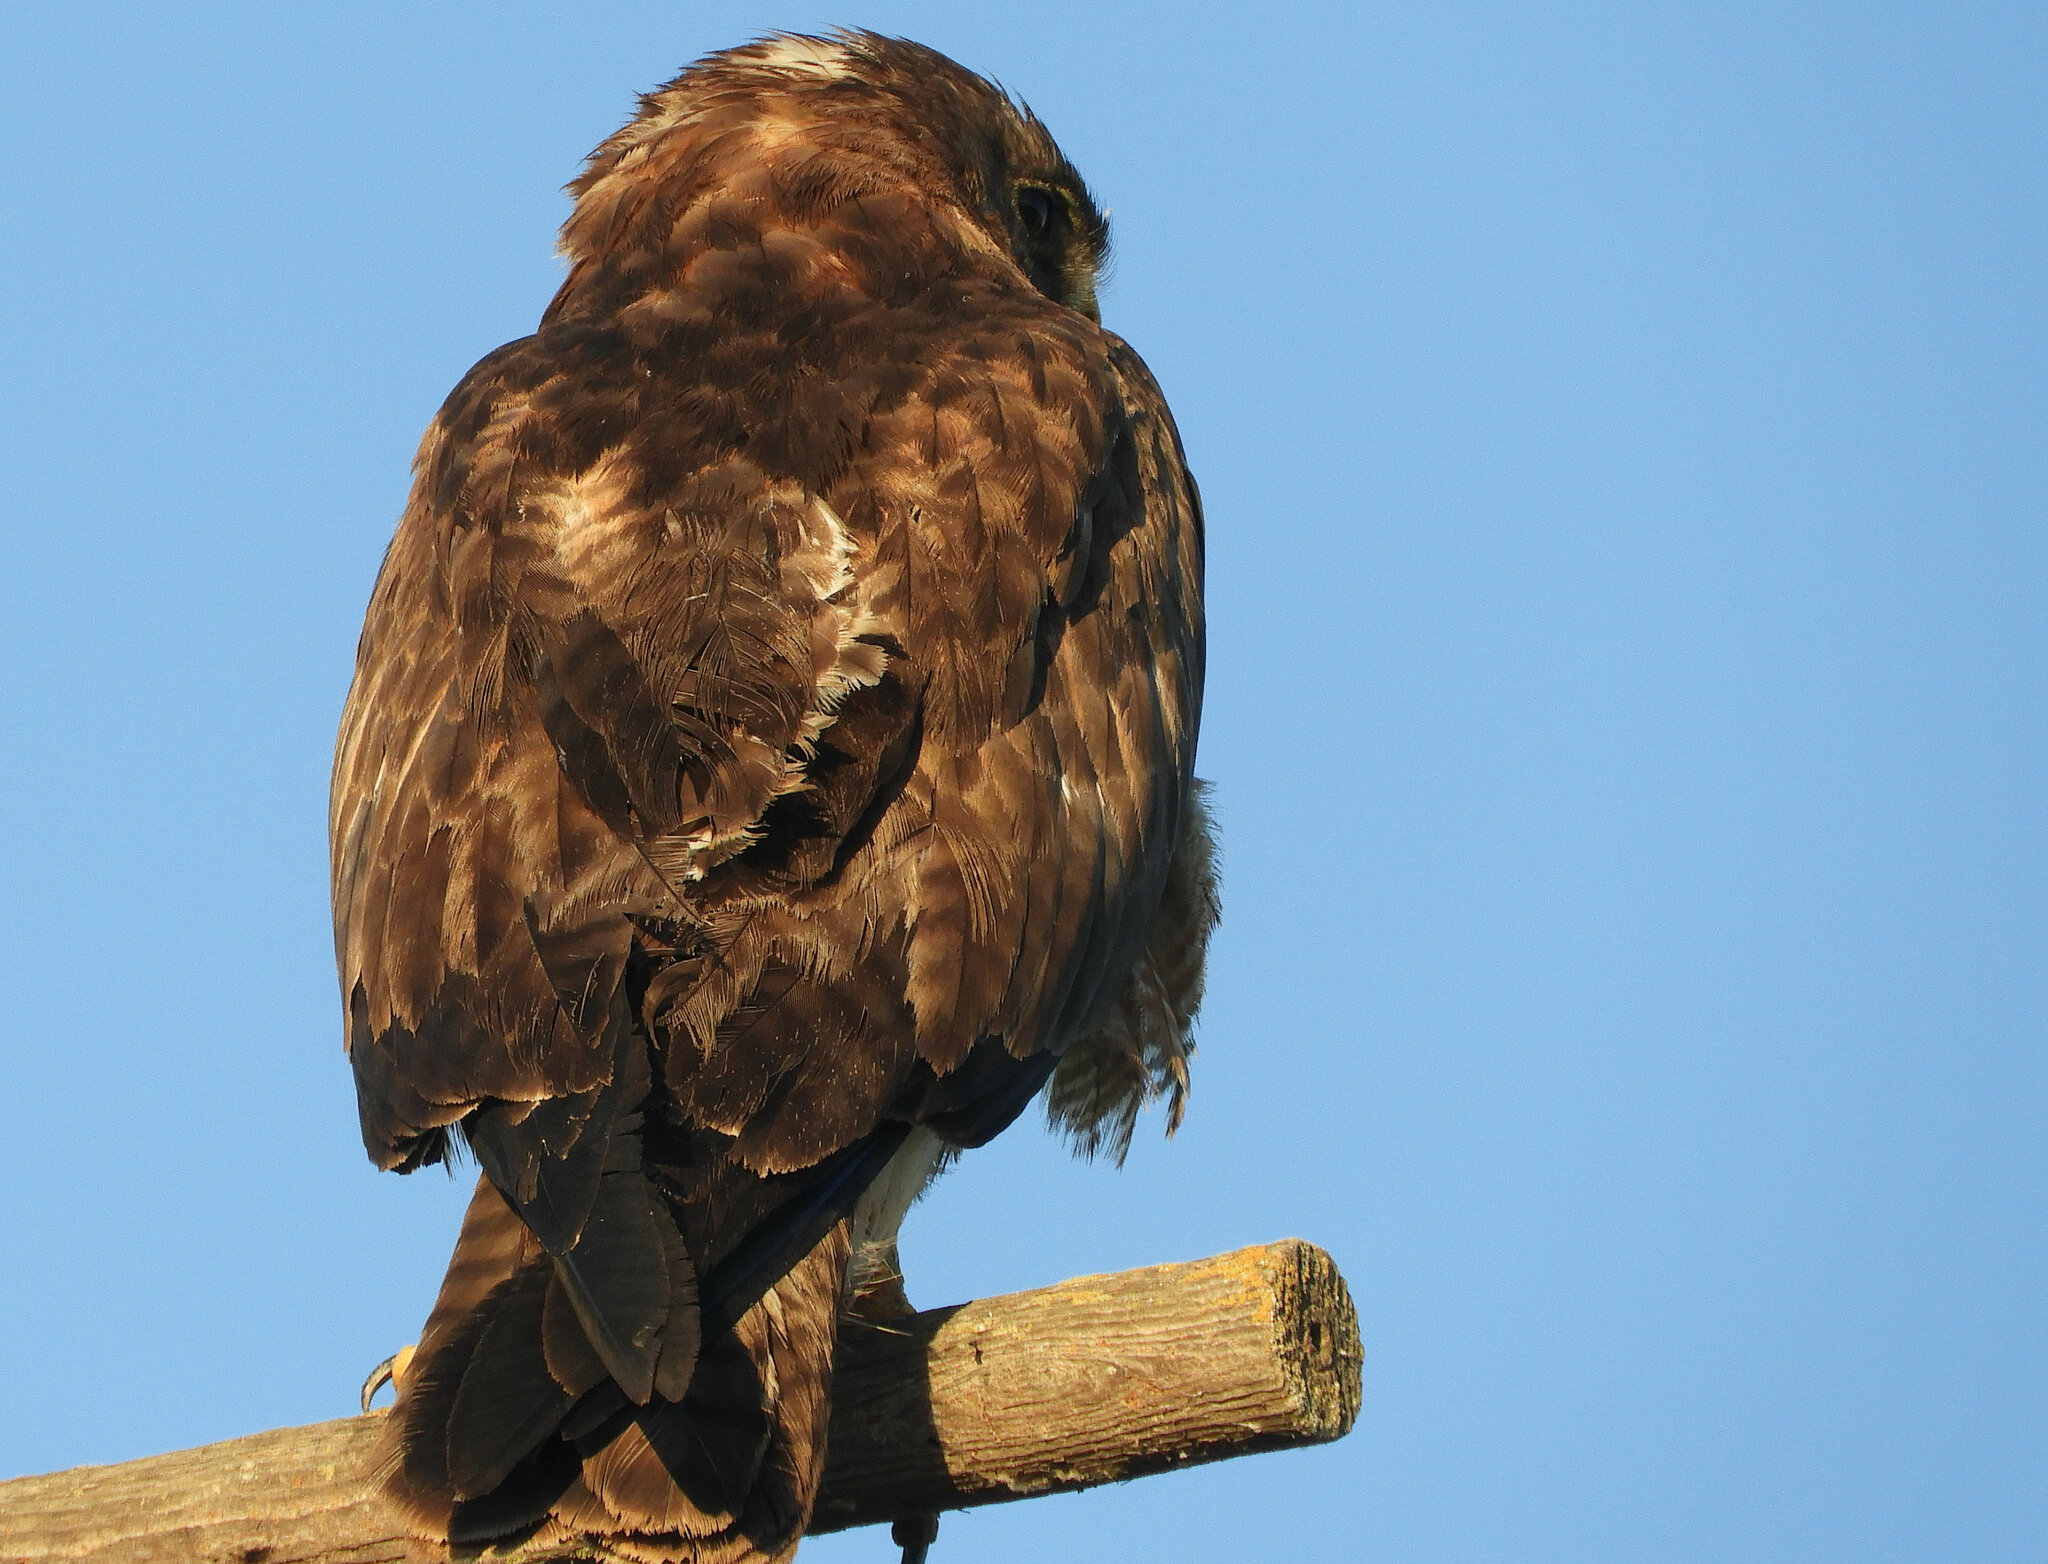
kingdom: Animalia
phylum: Chordata
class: Aves
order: Accipitriformes
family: Accipitridae
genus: Buteo
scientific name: Buteo jamaicensis
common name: Red-tailed hawk
